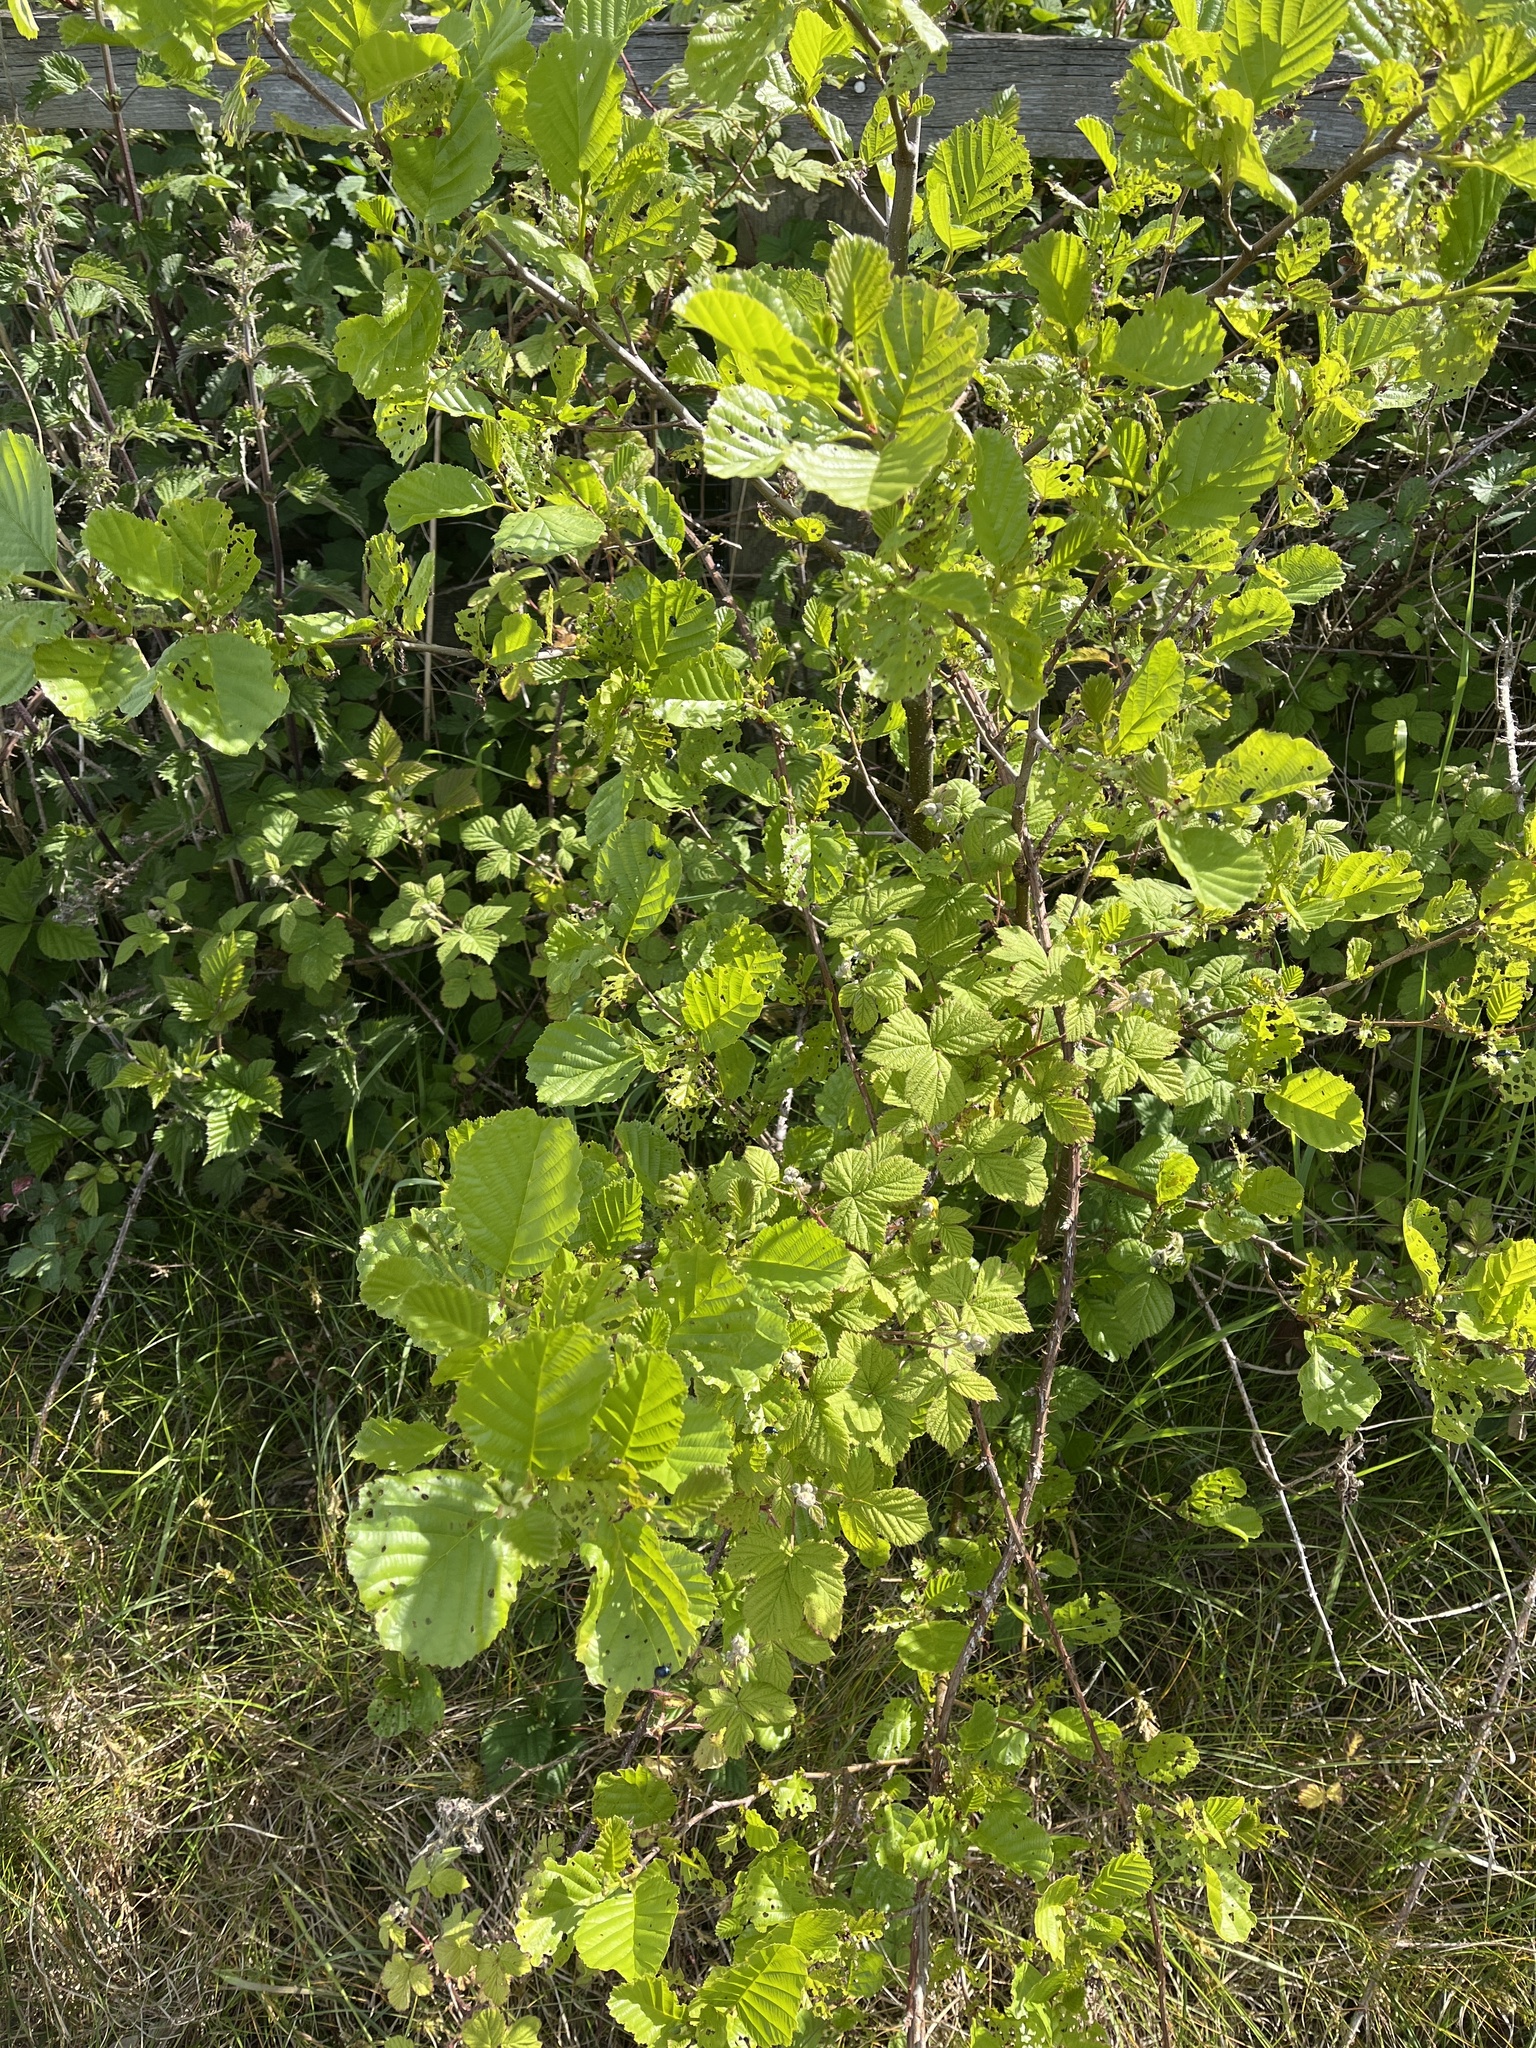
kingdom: Plantae
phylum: Tracheophyta
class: Magnoliopsida
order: Fagales
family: Betulaceae
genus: Alnus
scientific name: Alnus glutinosa
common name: Black alder
